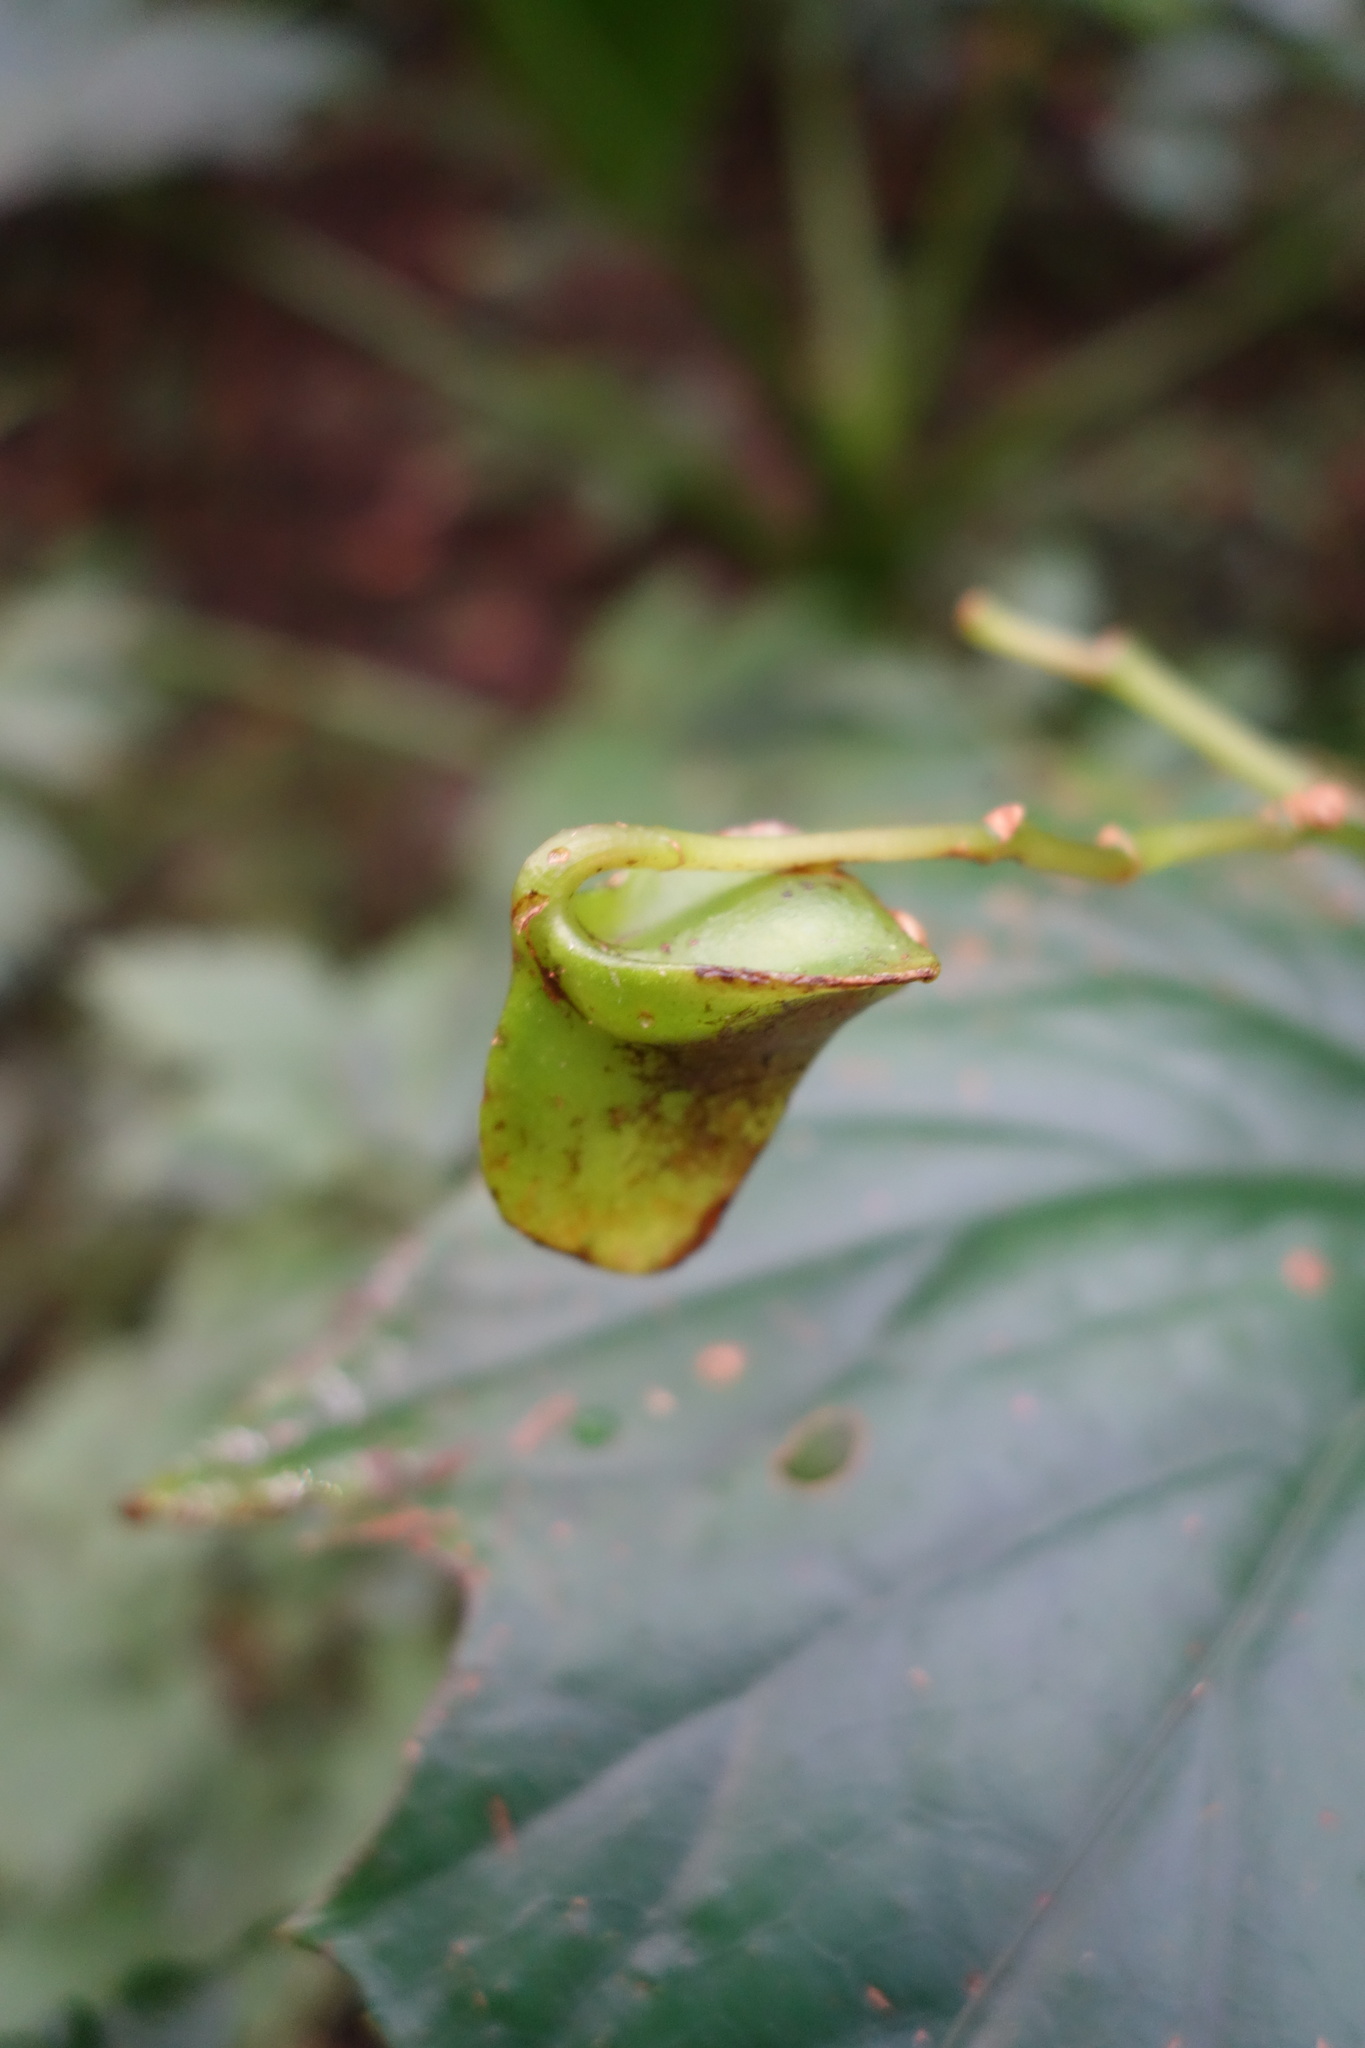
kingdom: Plantae
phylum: Tracheophyta
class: Magnoliopsida
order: Cucurbitales
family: Begoniaceae
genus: Begonia
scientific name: Begonia formosana
